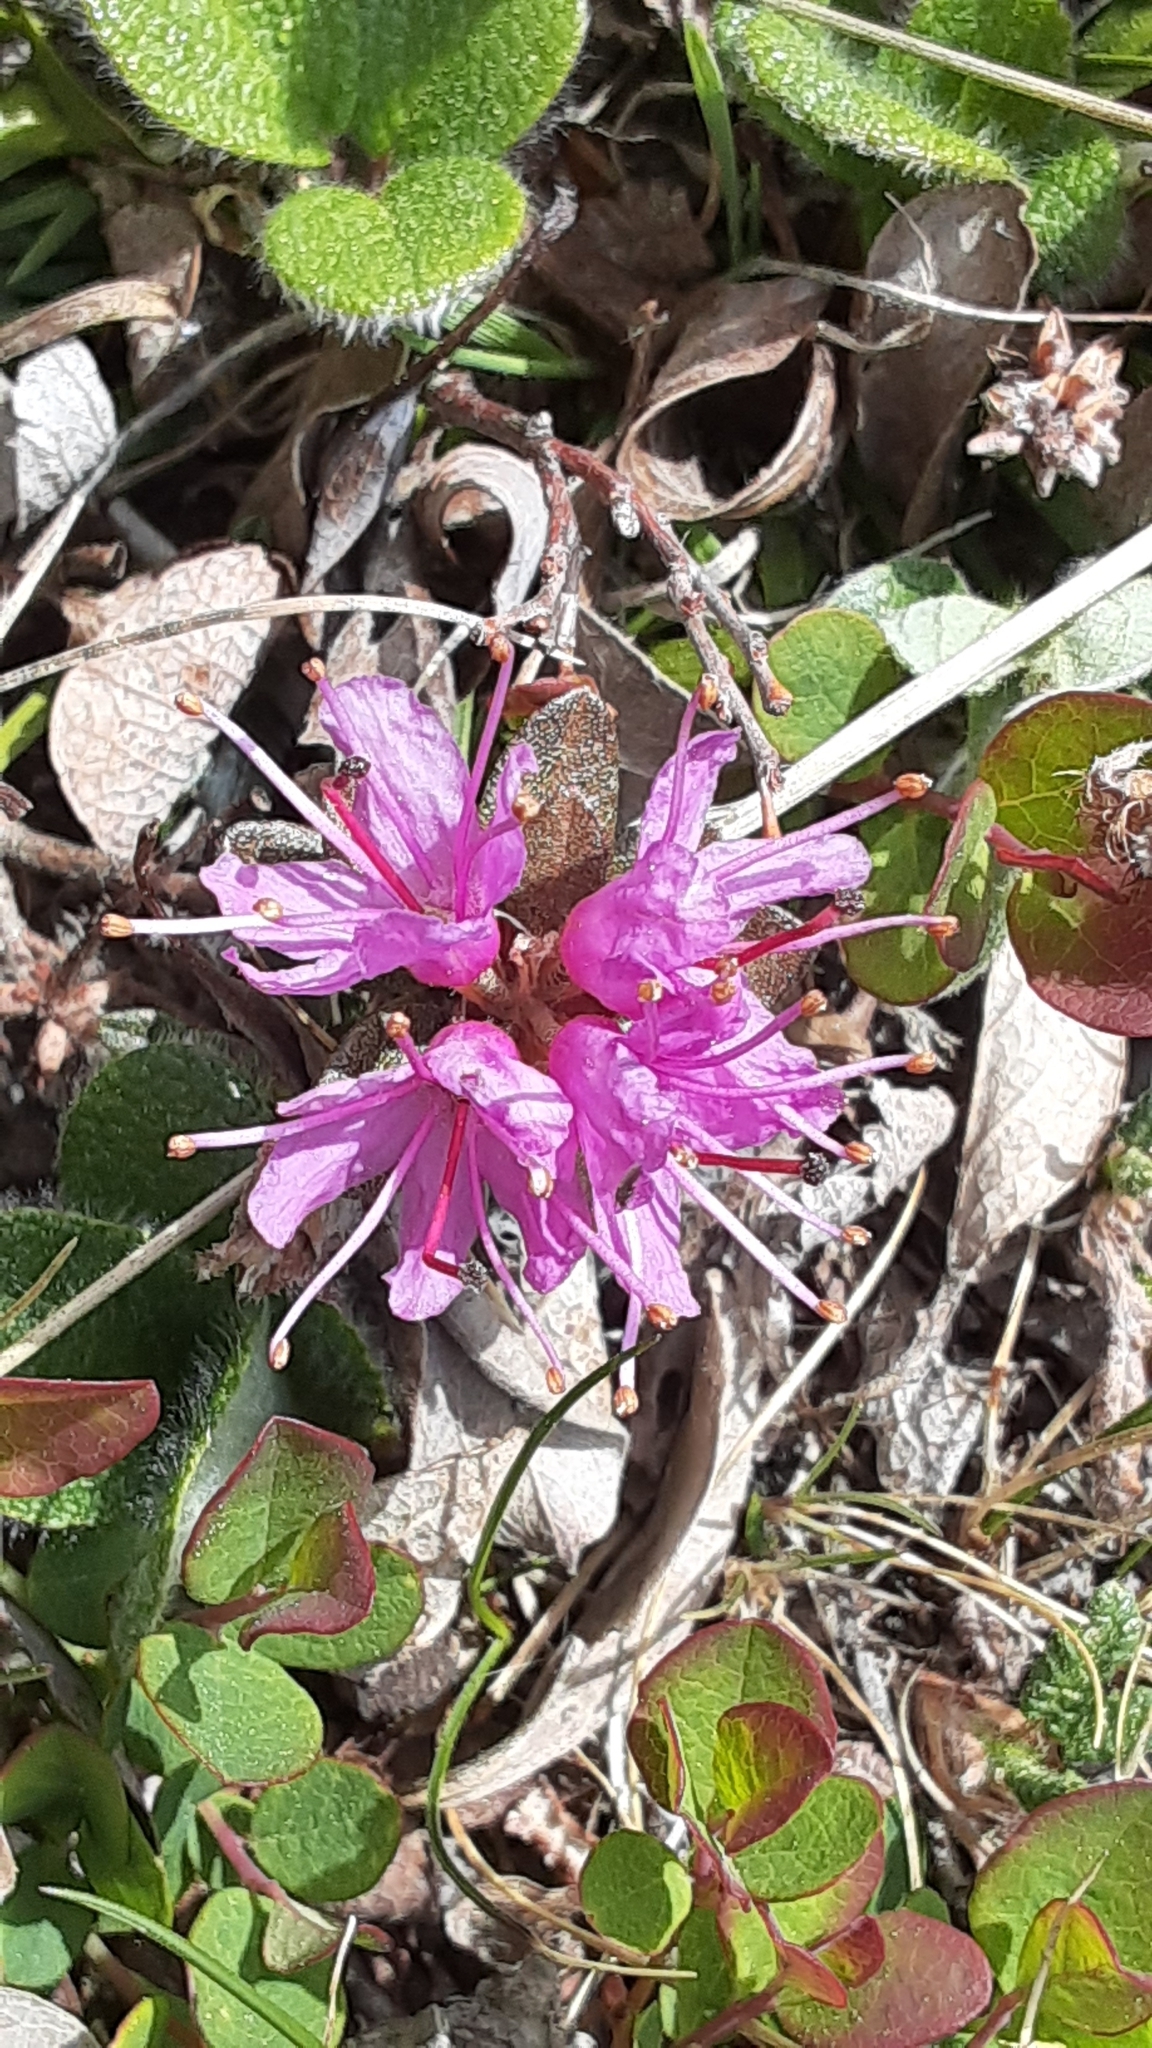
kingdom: Plantae
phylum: Tracheophyta
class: Magnoliopsida
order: Ericales
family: Ericaceae
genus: Rhododendron
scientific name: Rhododendron lapponicum
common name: Lapland rhododendron
